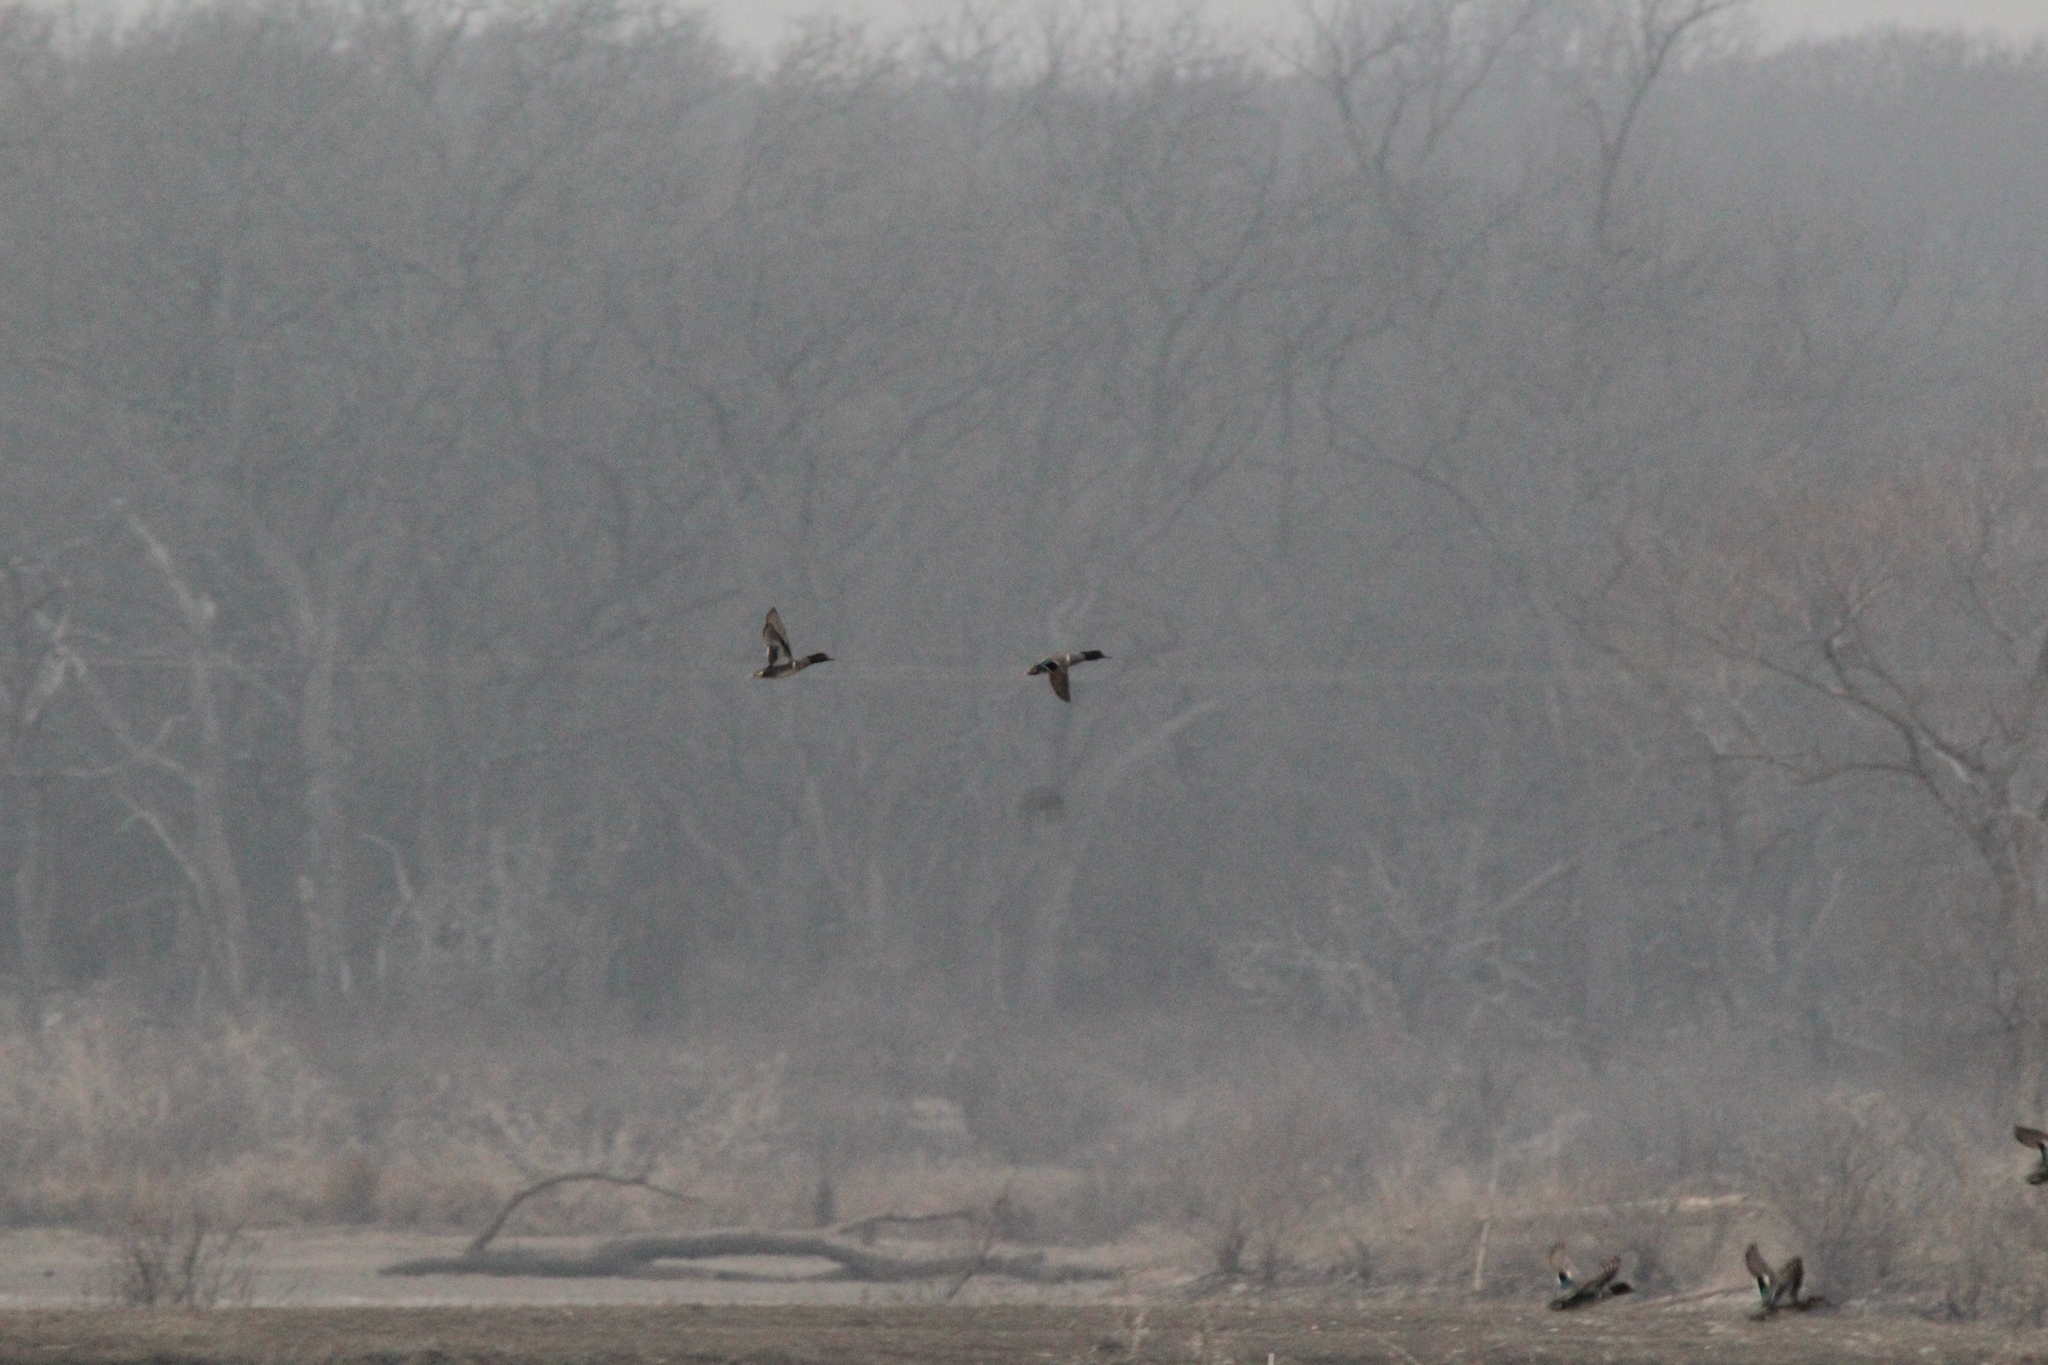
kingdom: Animalia
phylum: Chordata
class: Aves
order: Anseriformes
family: Anatidae
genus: Anas
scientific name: Anas crecca
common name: Eurasian teal
